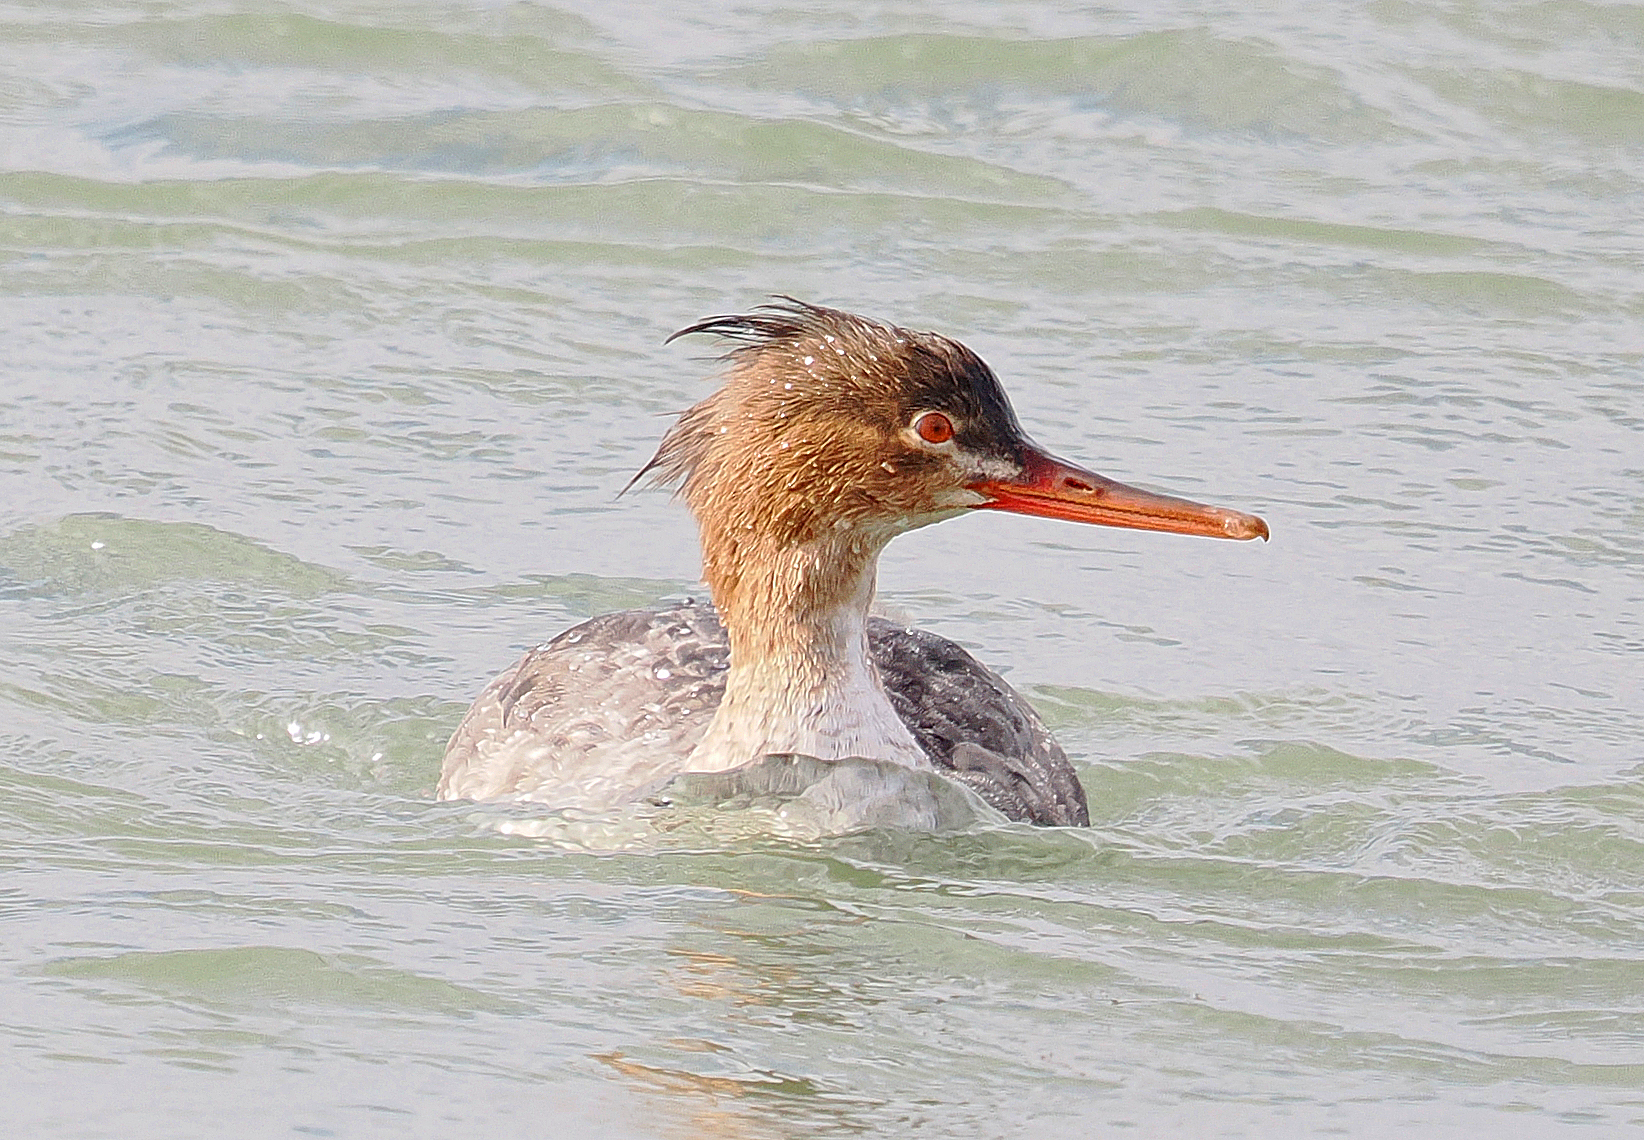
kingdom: Animalia
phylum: Chordata
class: Aves
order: Anseriformes
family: Anatidae
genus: Mergus
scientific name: Mergus serrator
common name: Red-breasted merganser
